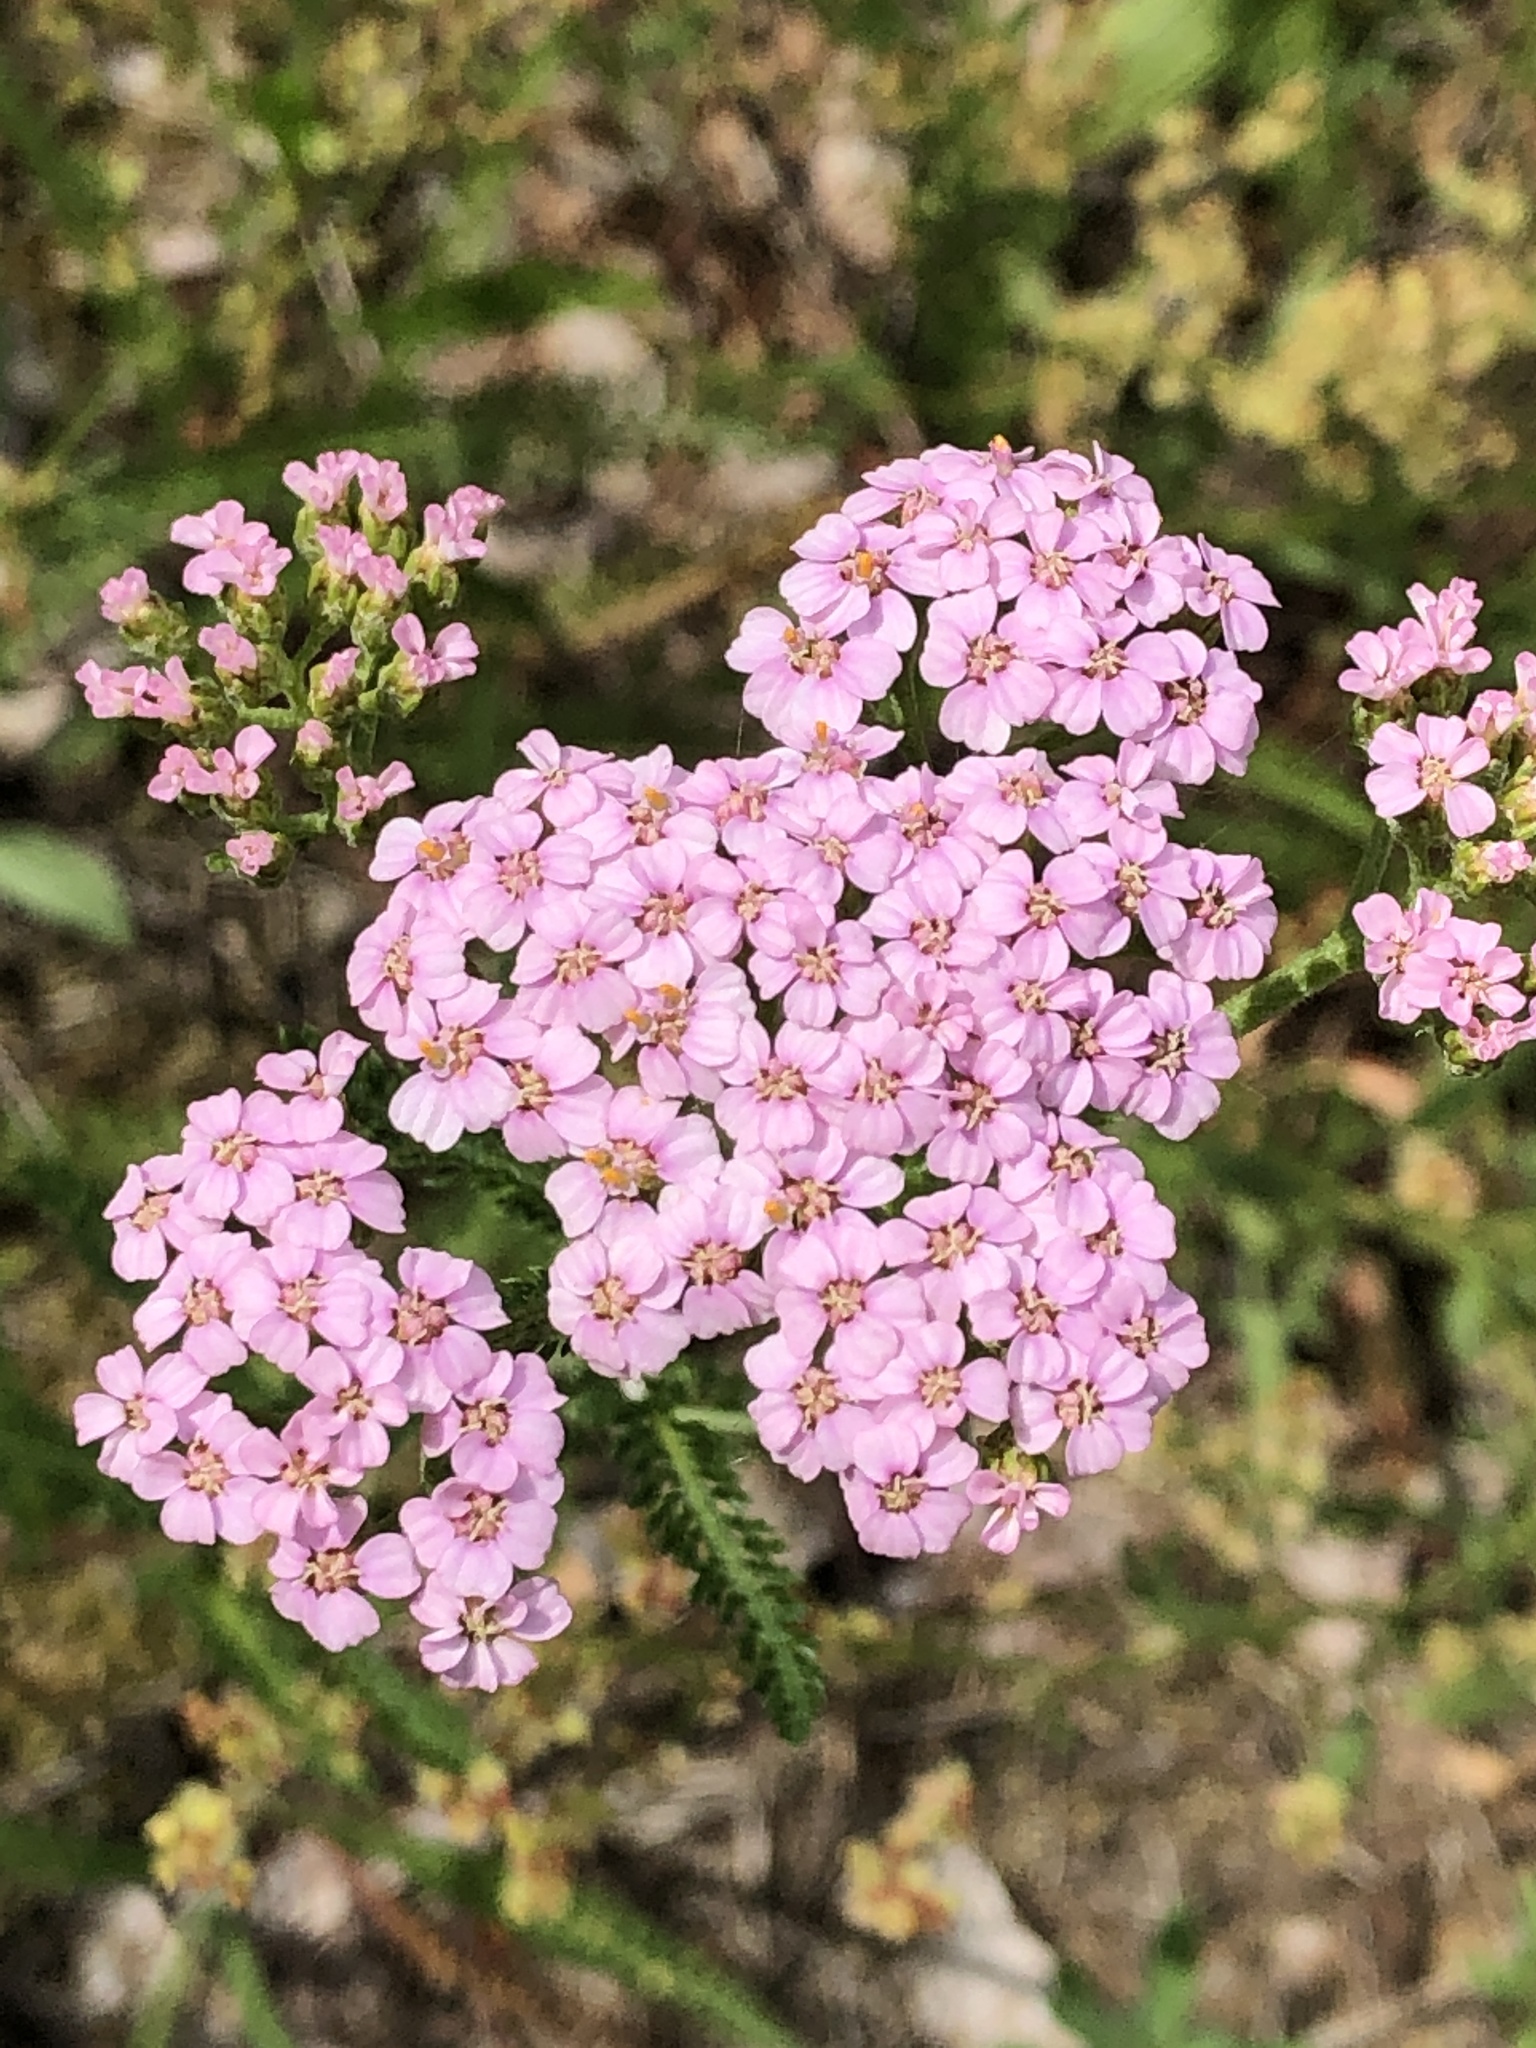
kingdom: Plantae
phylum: Tracheophyta
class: Magnoliopsida
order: Asterales
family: Asteraceae
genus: Achillea
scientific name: Achillea millefolium
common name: Yarrow
